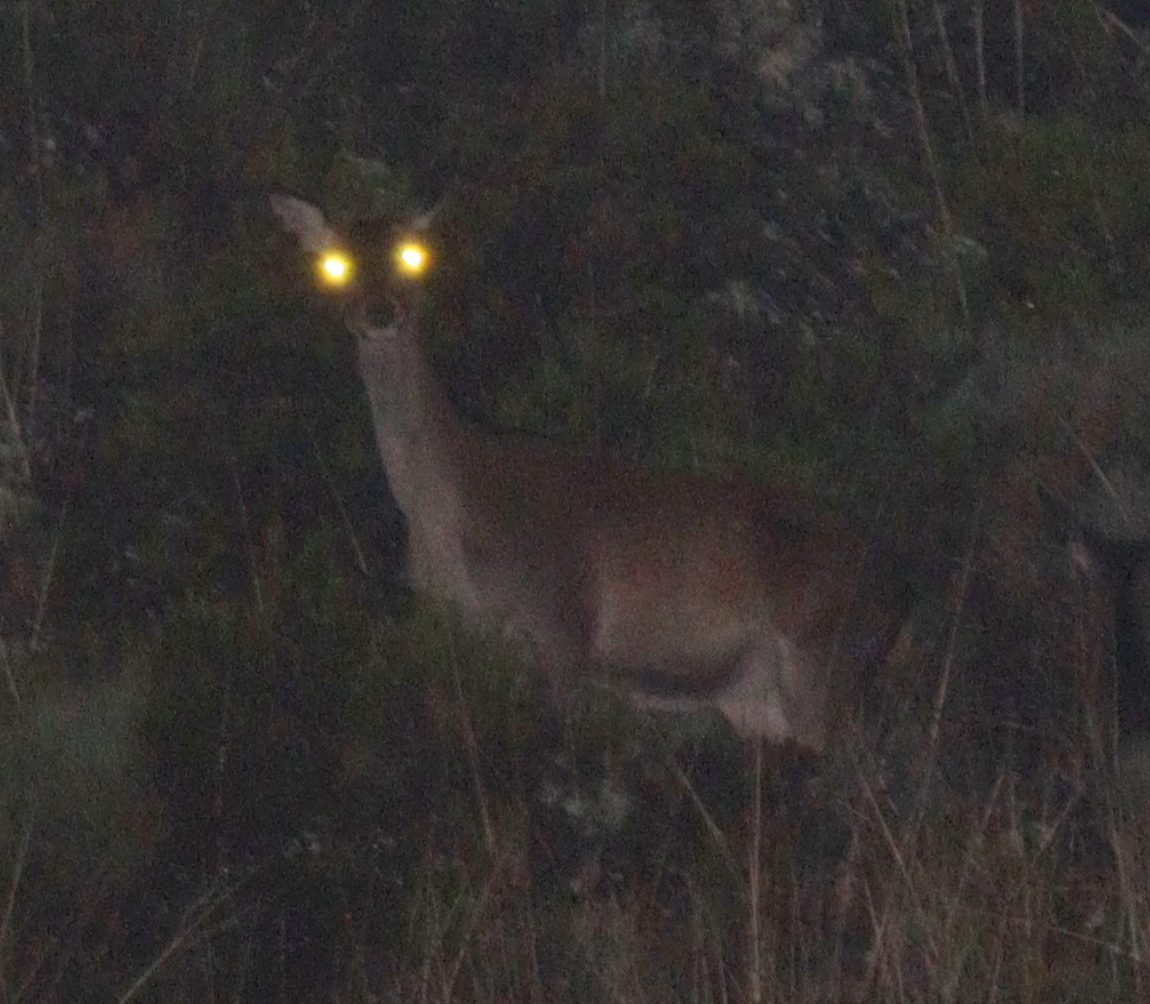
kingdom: Animalia
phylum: Chordata
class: Mammalia
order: Artiodactyla
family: Cervidae
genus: Cervus
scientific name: Cervus elaphus
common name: Red deer
